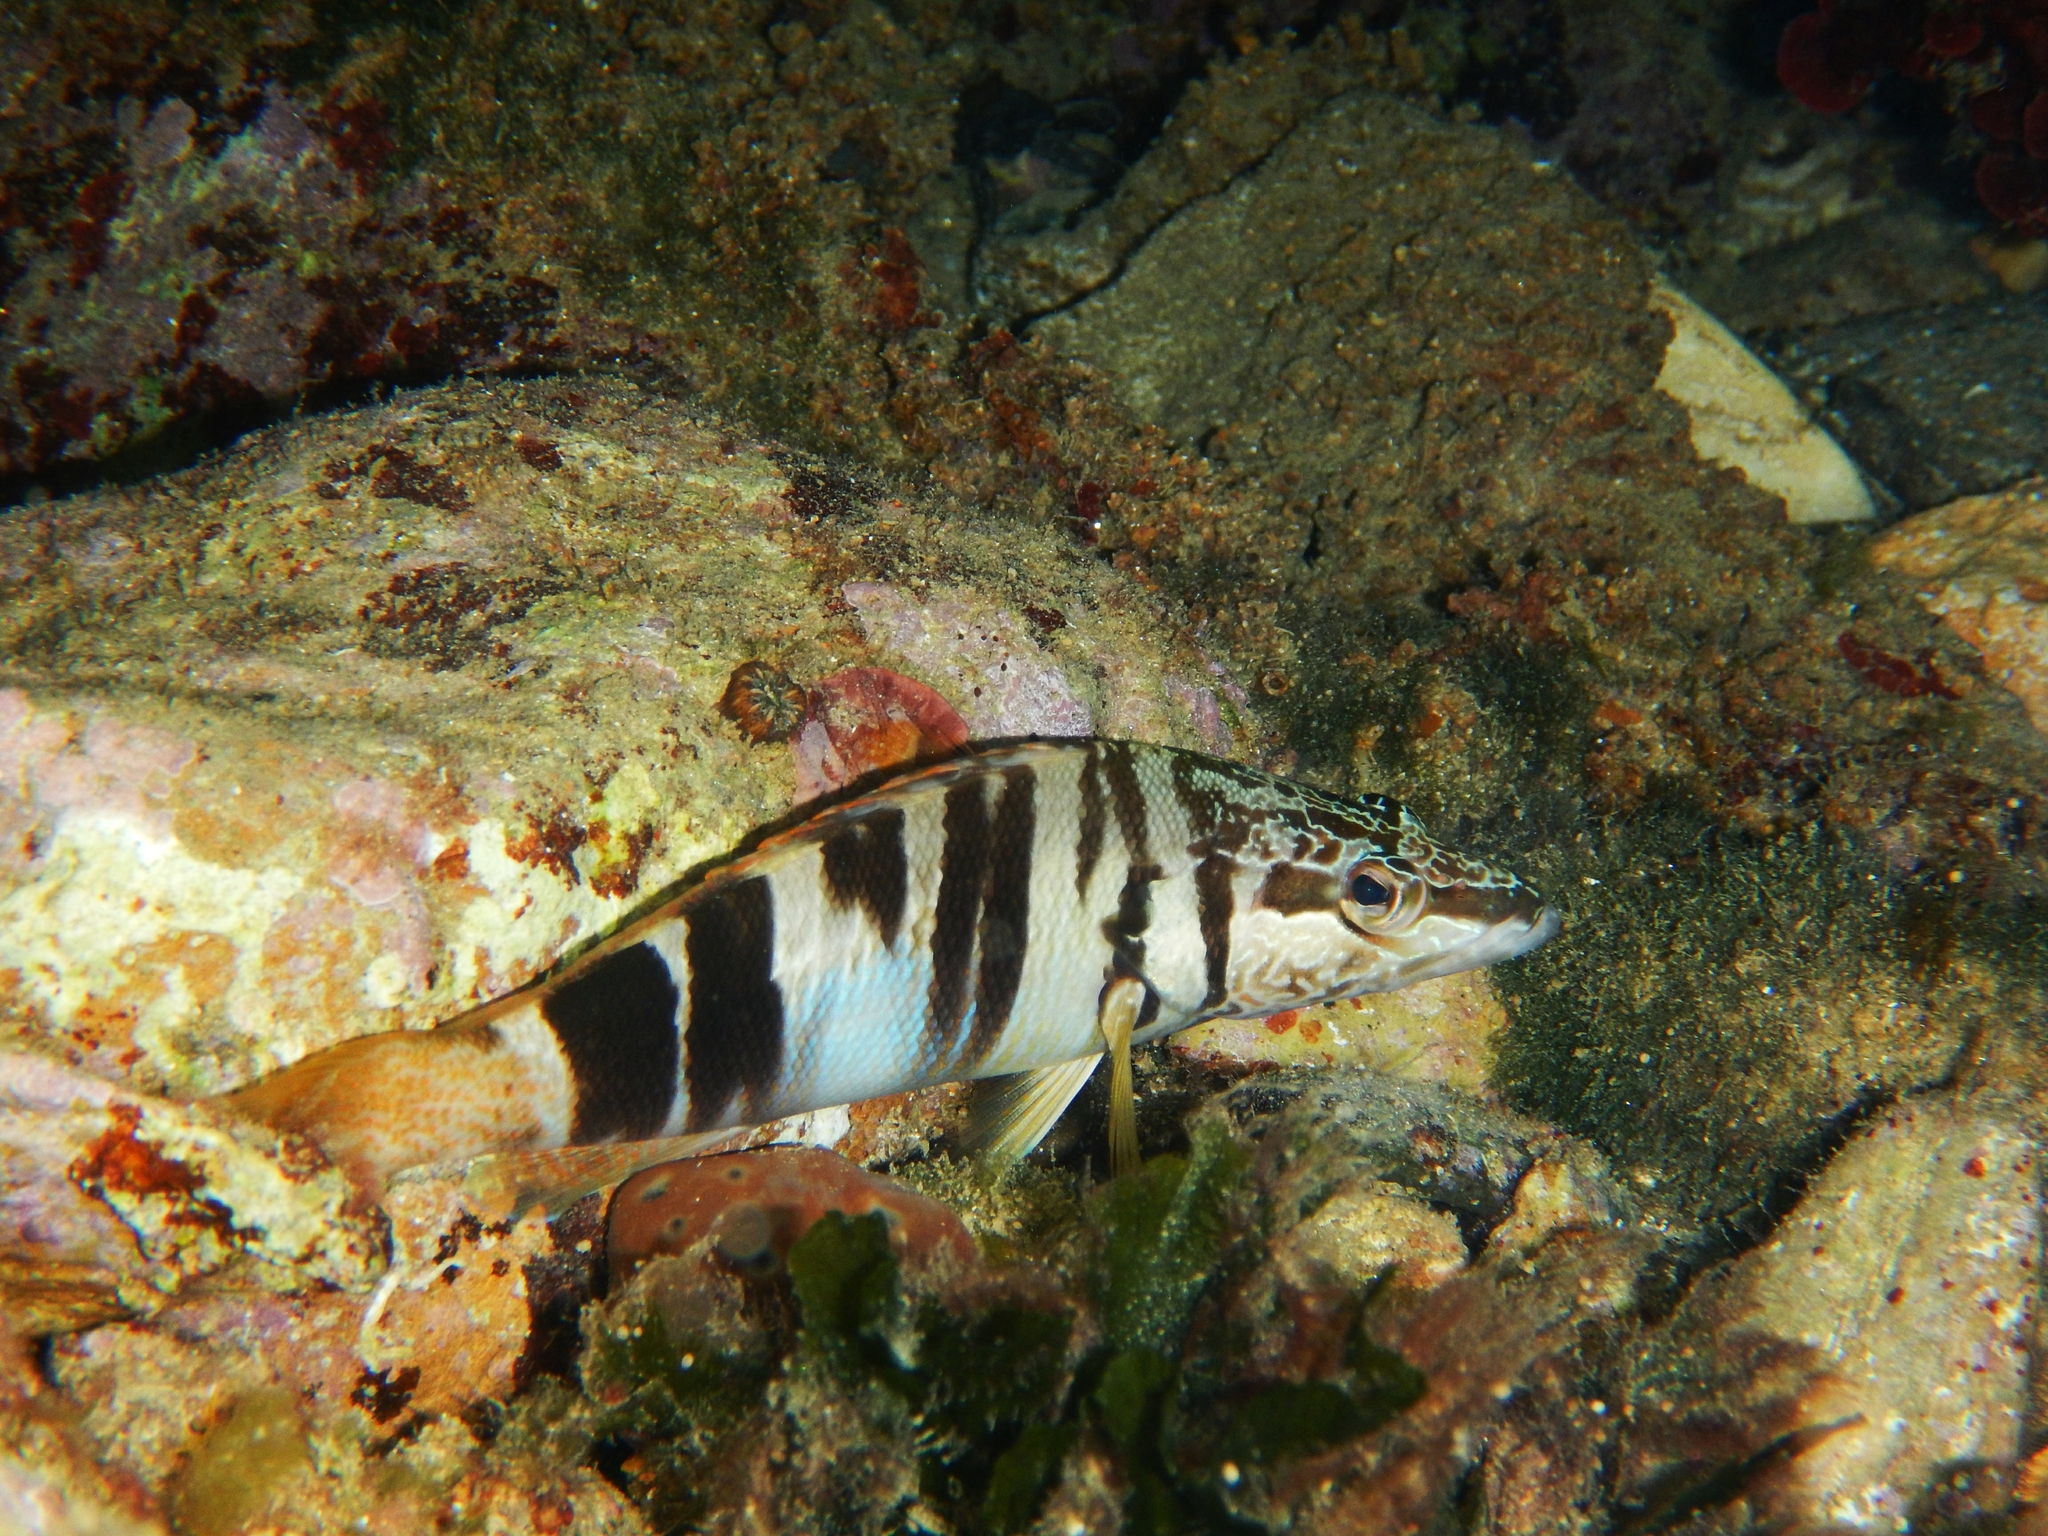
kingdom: Animalia
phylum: Chordata
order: Perciformes
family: Serranidae
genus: Serranus
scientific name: Serranus scriba
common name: Painted comber
